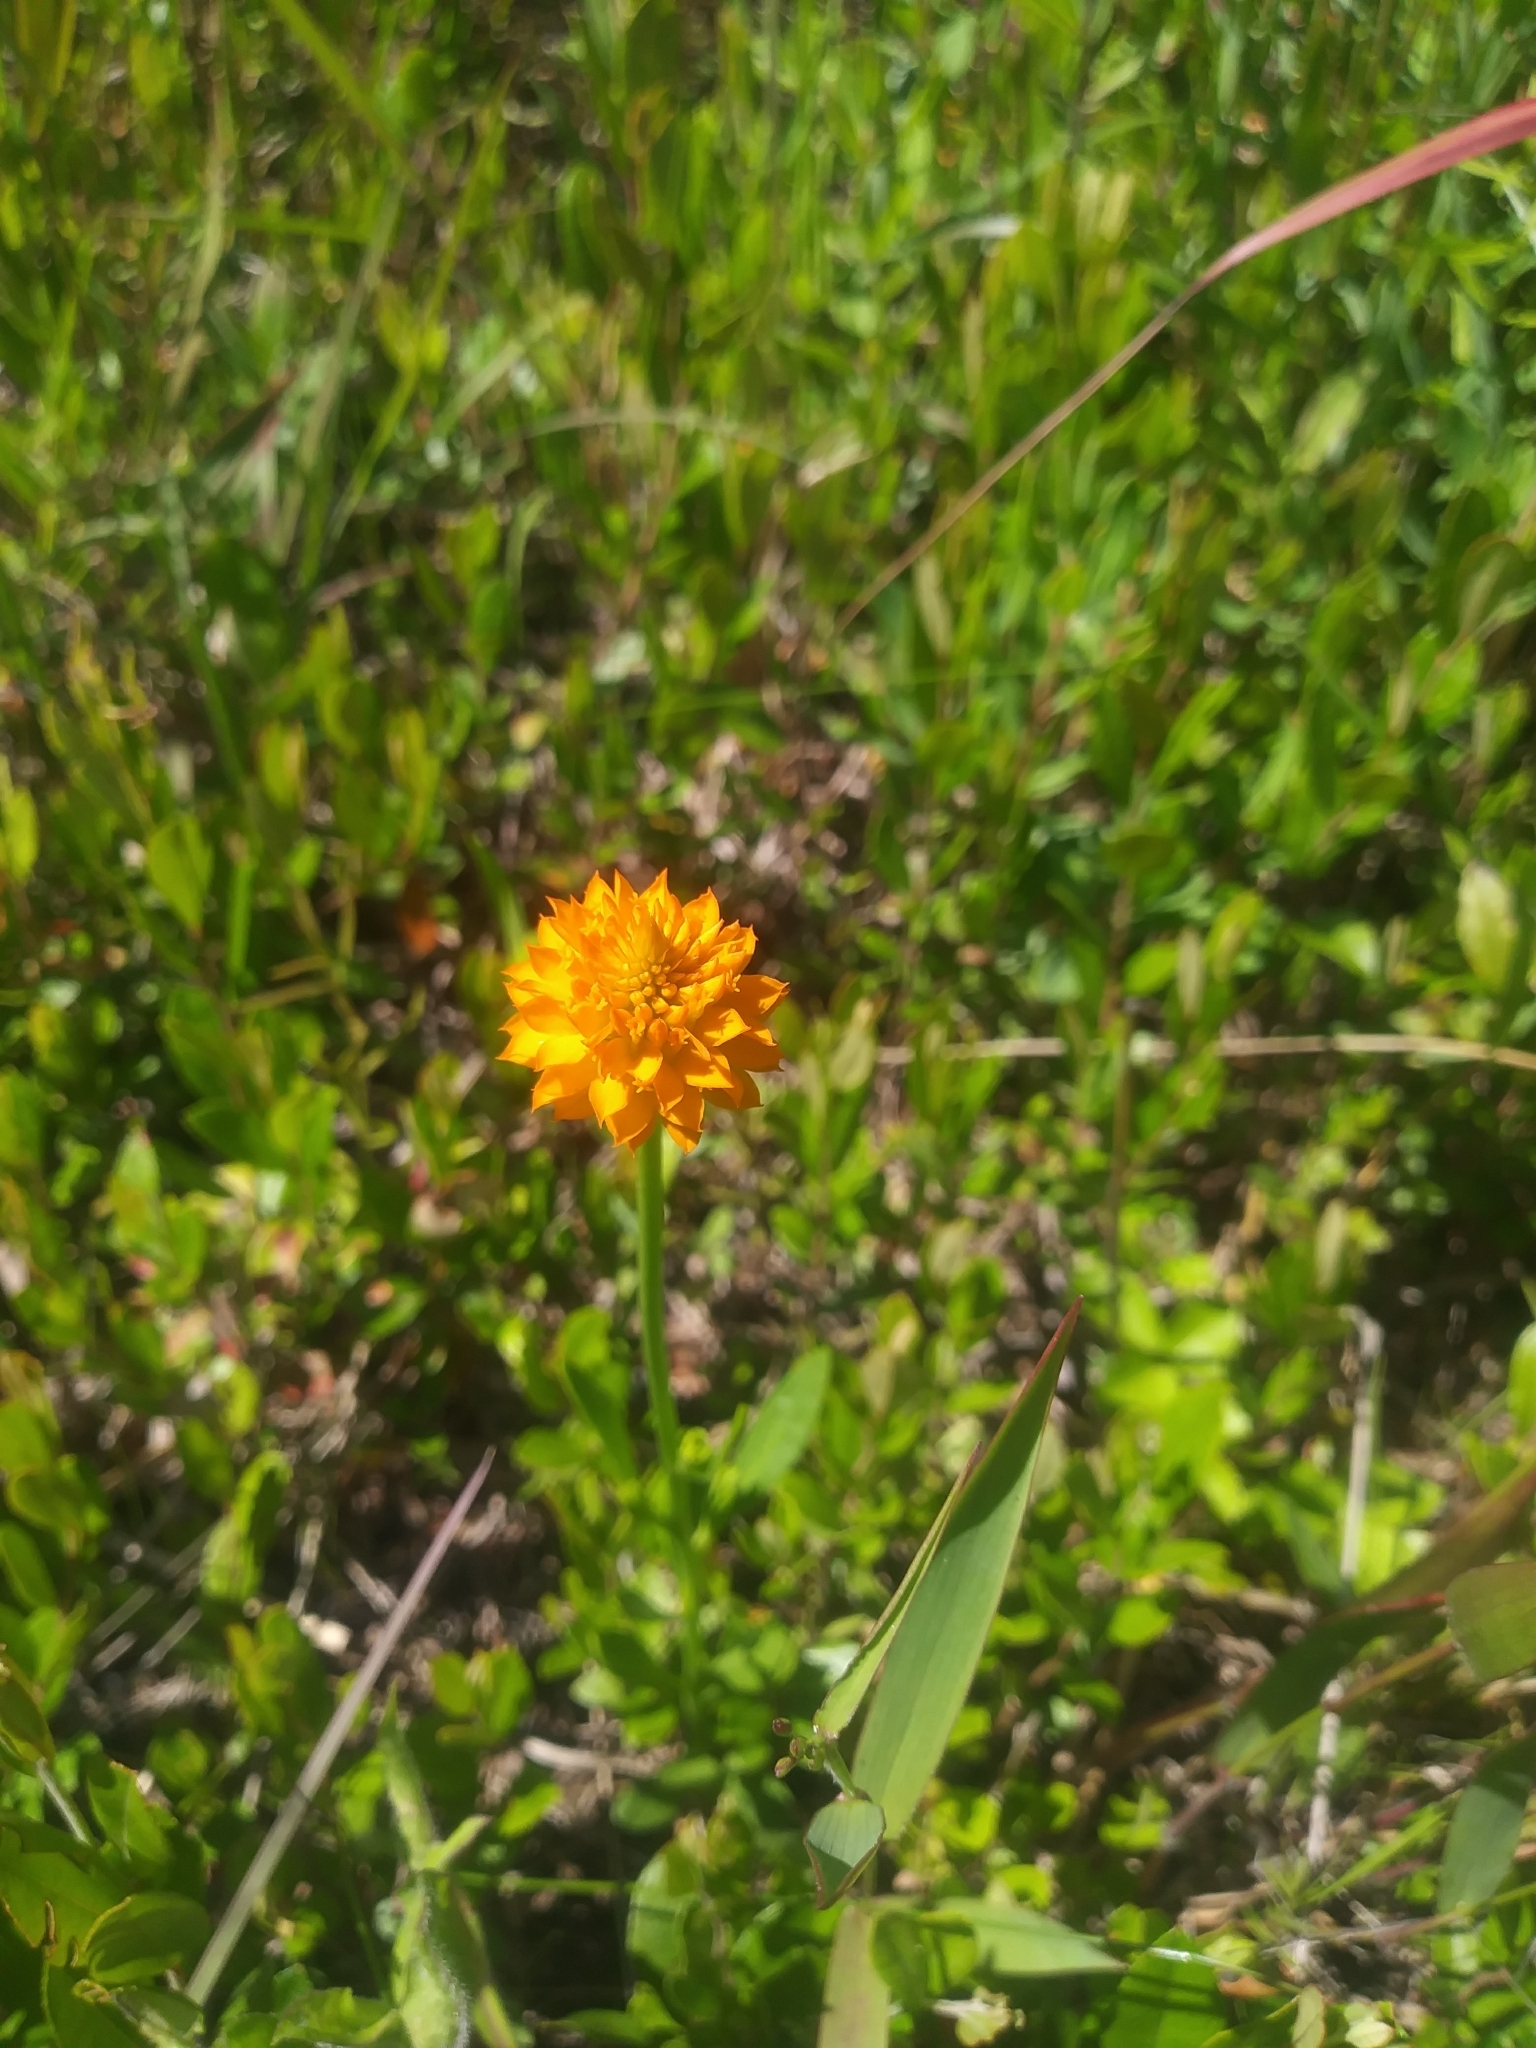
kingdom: Plantae
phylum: Tracheophyta
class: Magnoliopsida
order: Fabales
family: Polygalaceae
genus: Polygala
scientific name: Polygala lutea
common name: Orange milkwort
